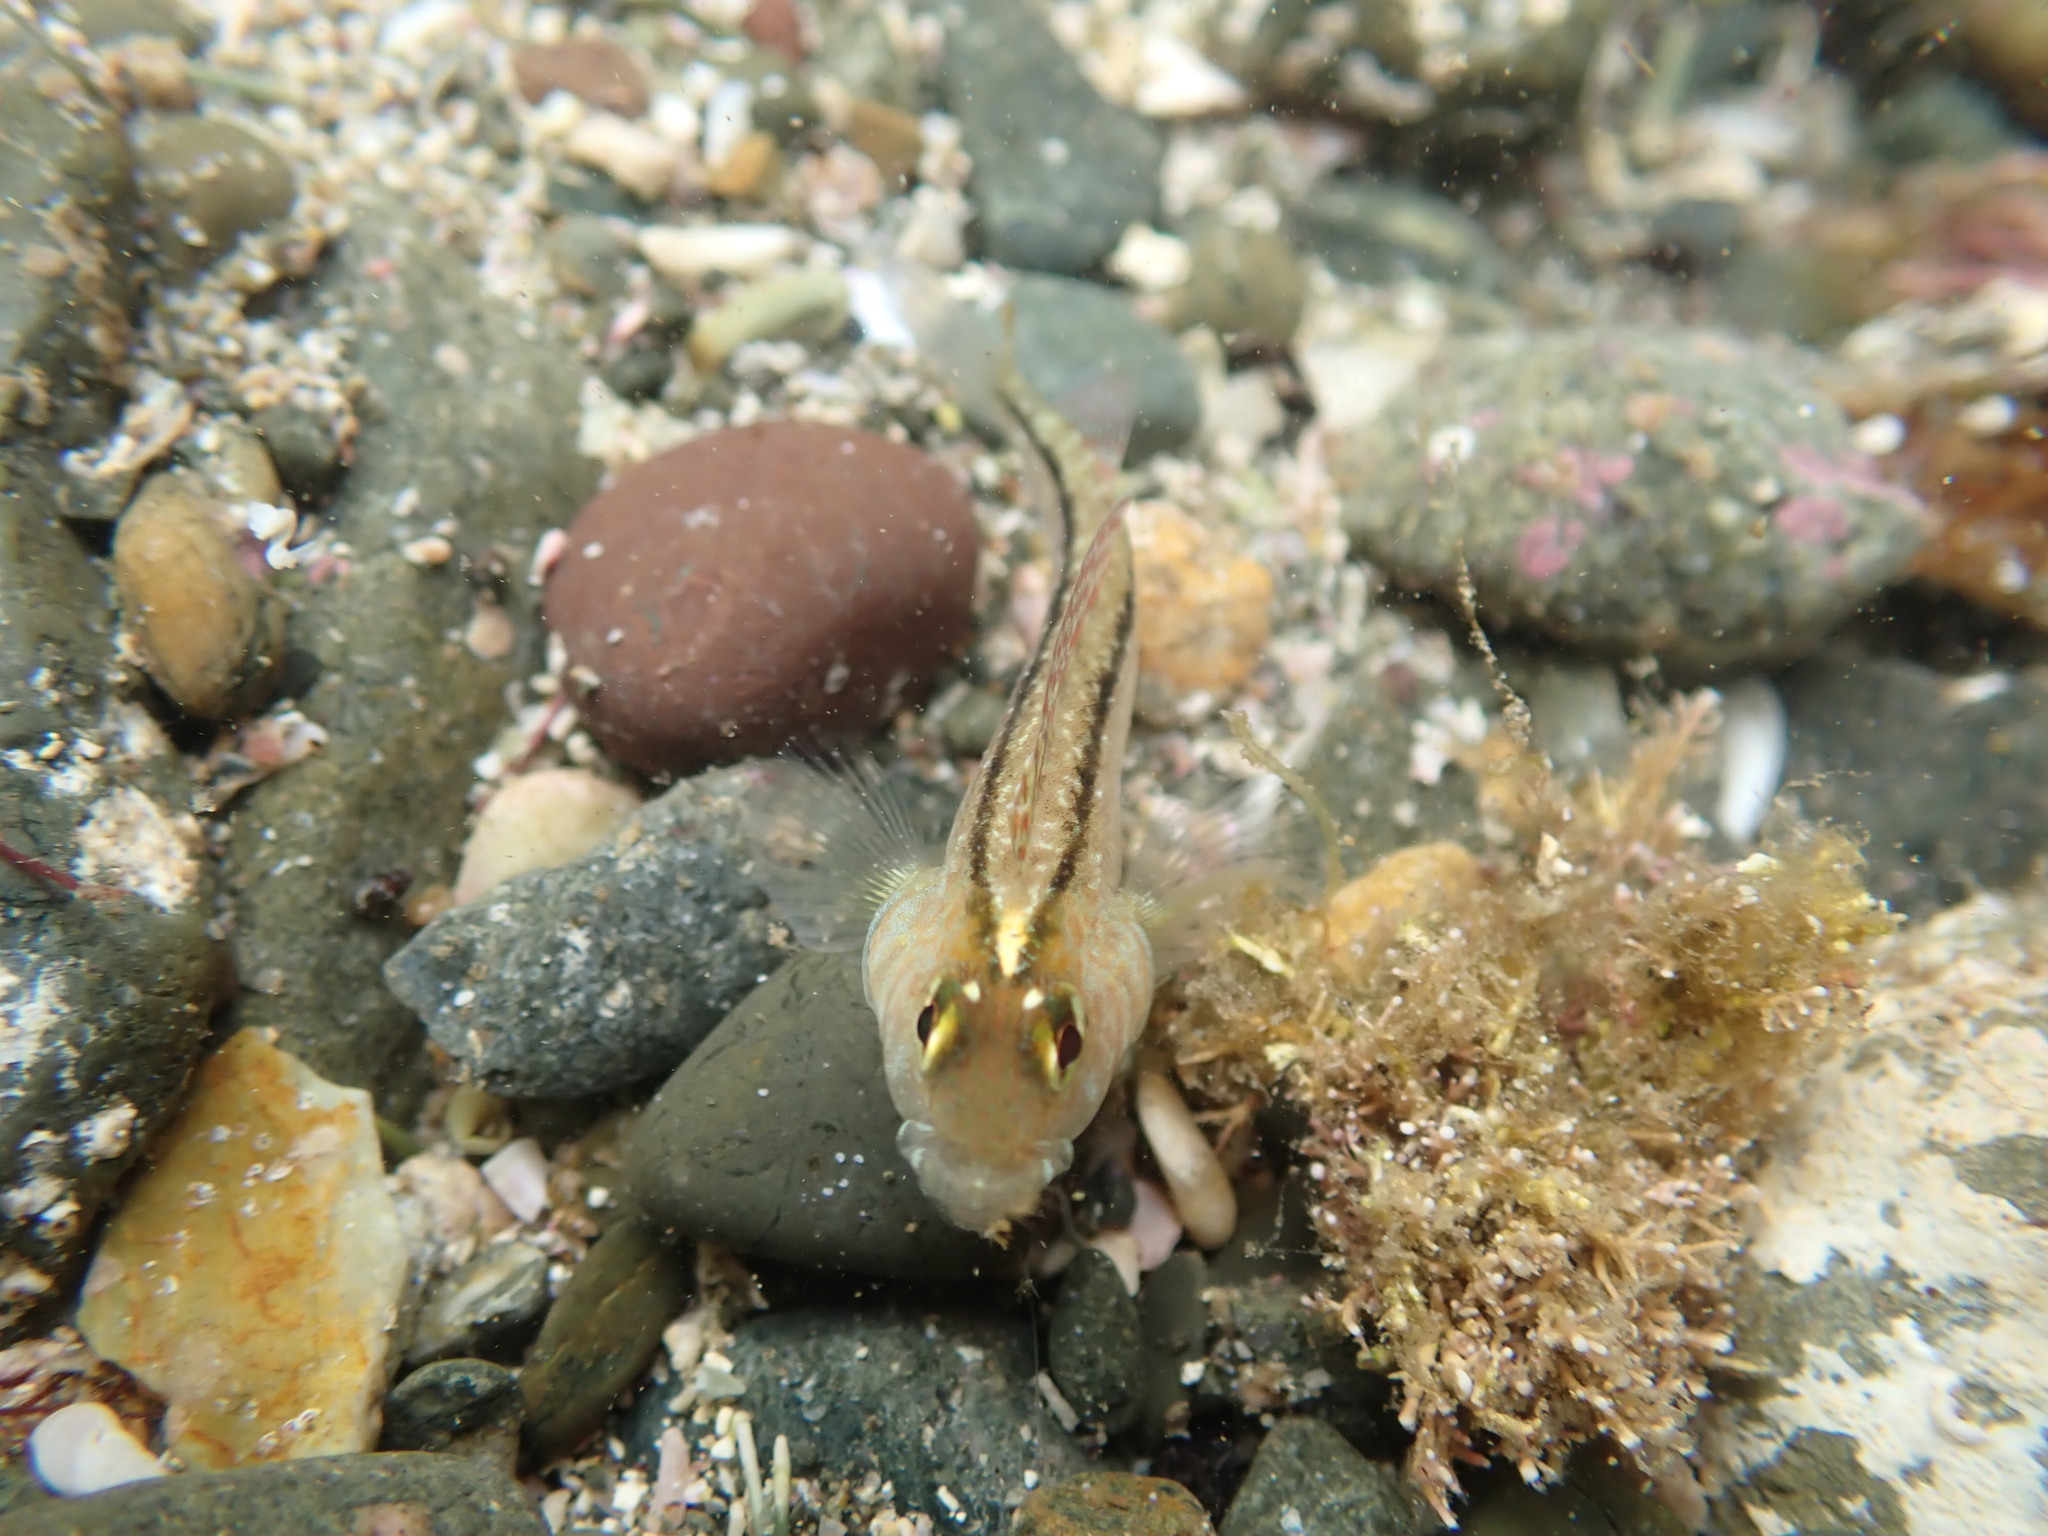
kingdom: Animalia
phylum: Chordata
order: Perciformes
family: Tripterygiidae
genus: Forsterygion
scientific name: Forsterygion lapillum
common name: Common triplefin
